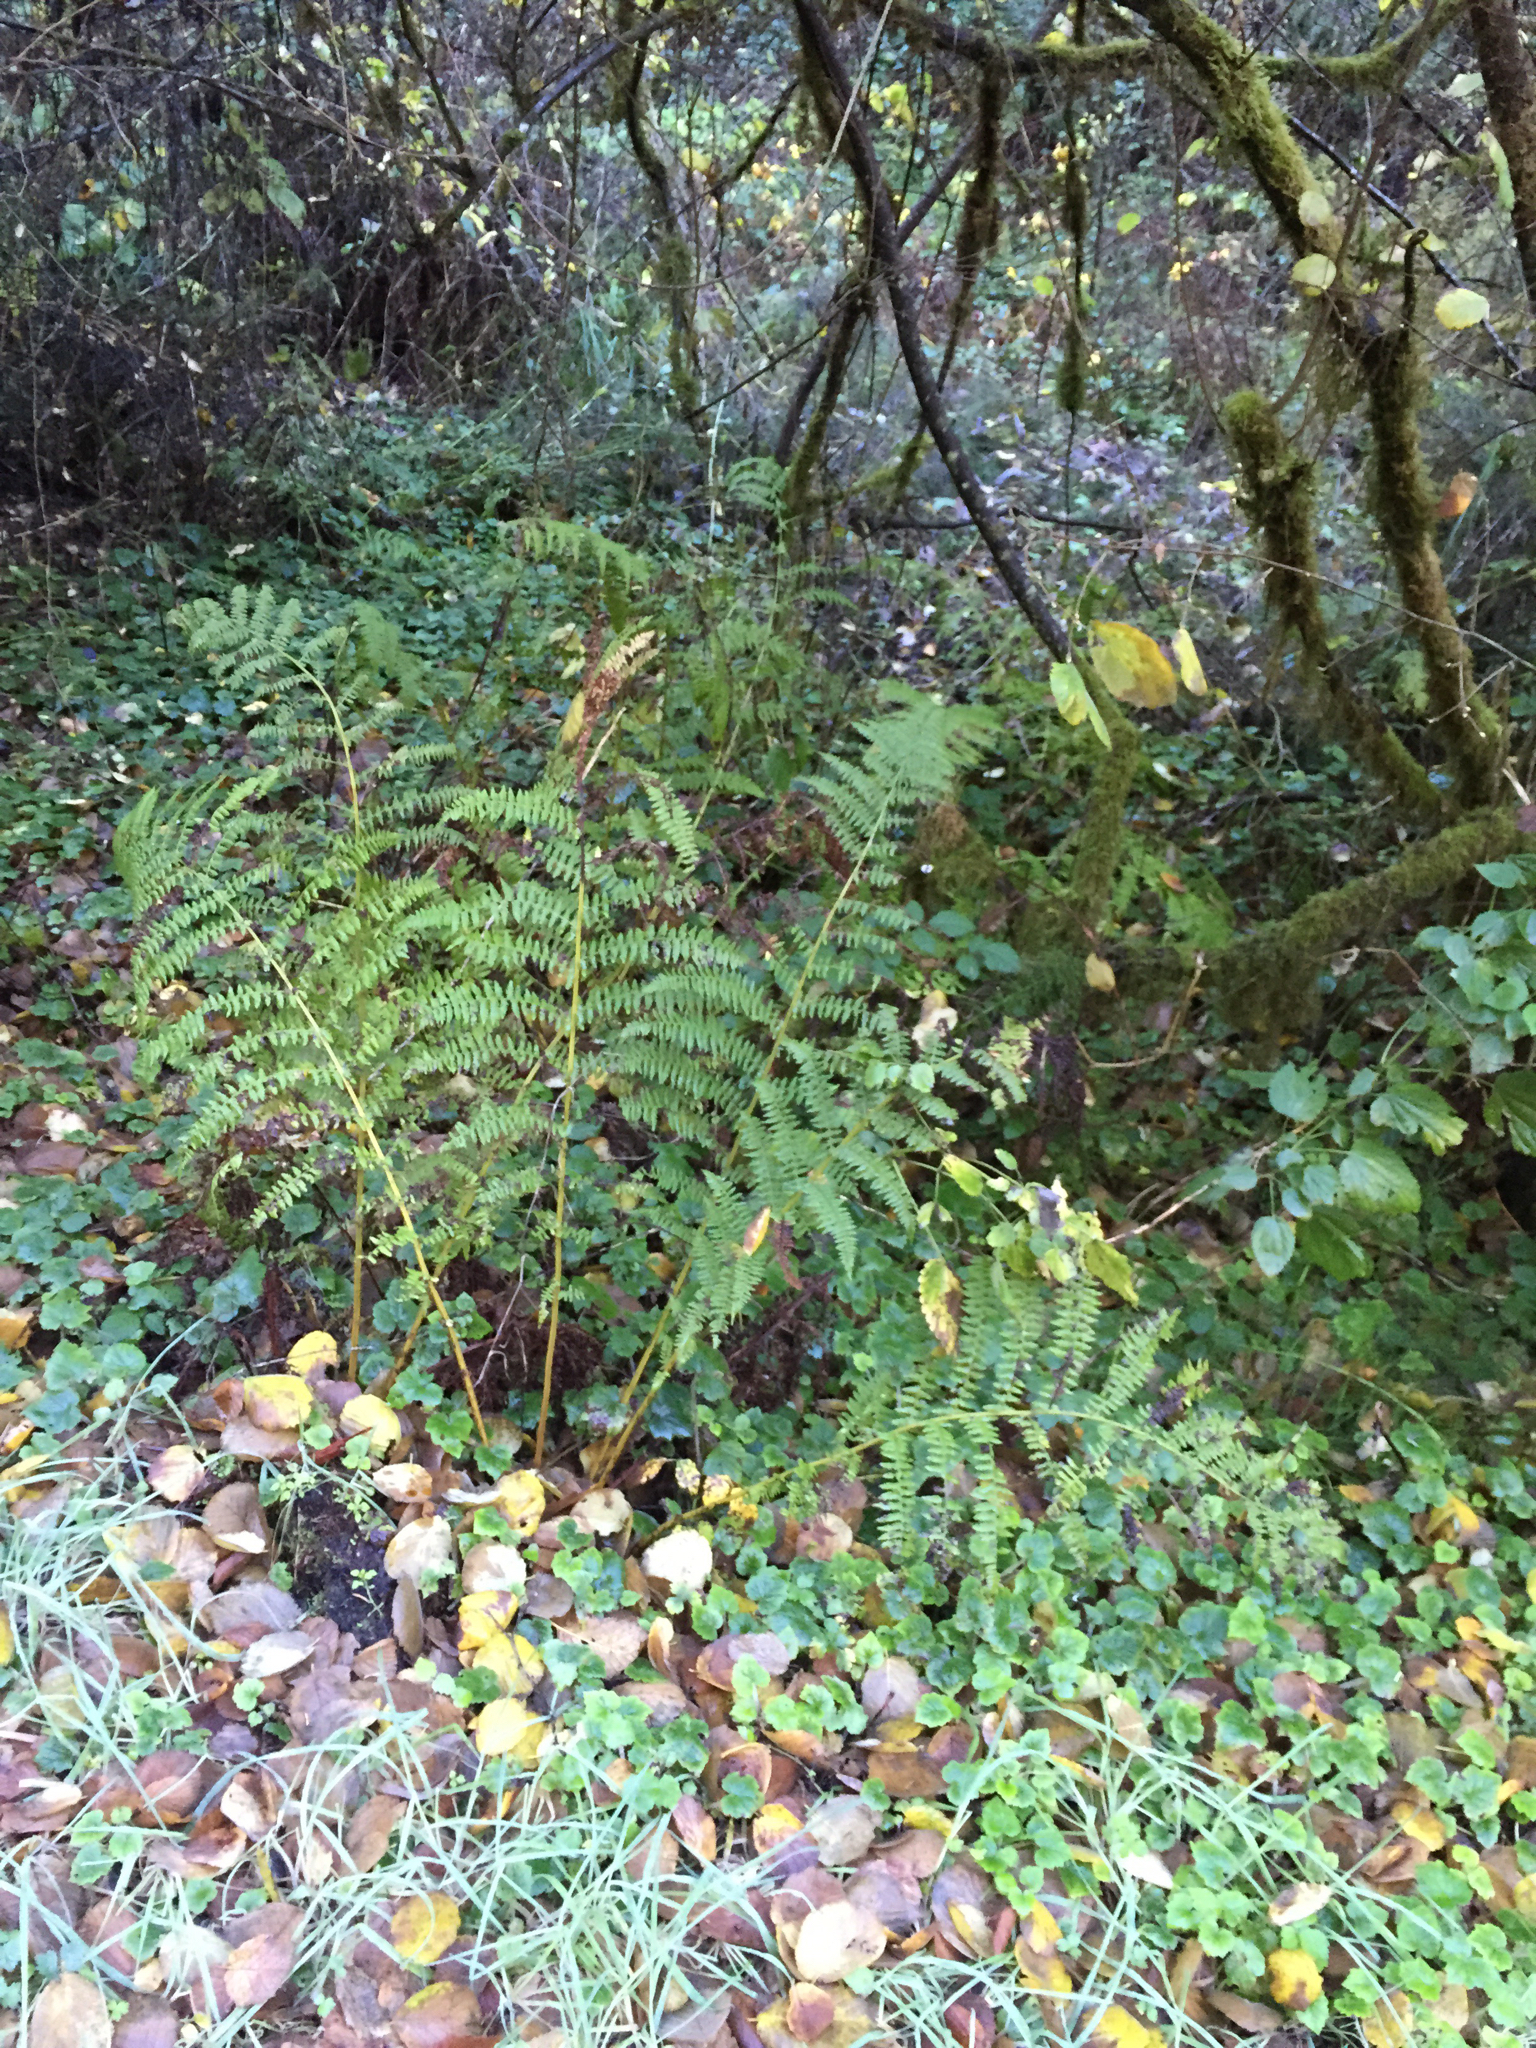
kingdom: Plantae
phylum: Tracheophyta
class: Polypodiopsida
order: Polypodiales
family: Athyriaceae
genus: Athyrium
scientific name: Athyrium filix-femina
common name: Lady fern
